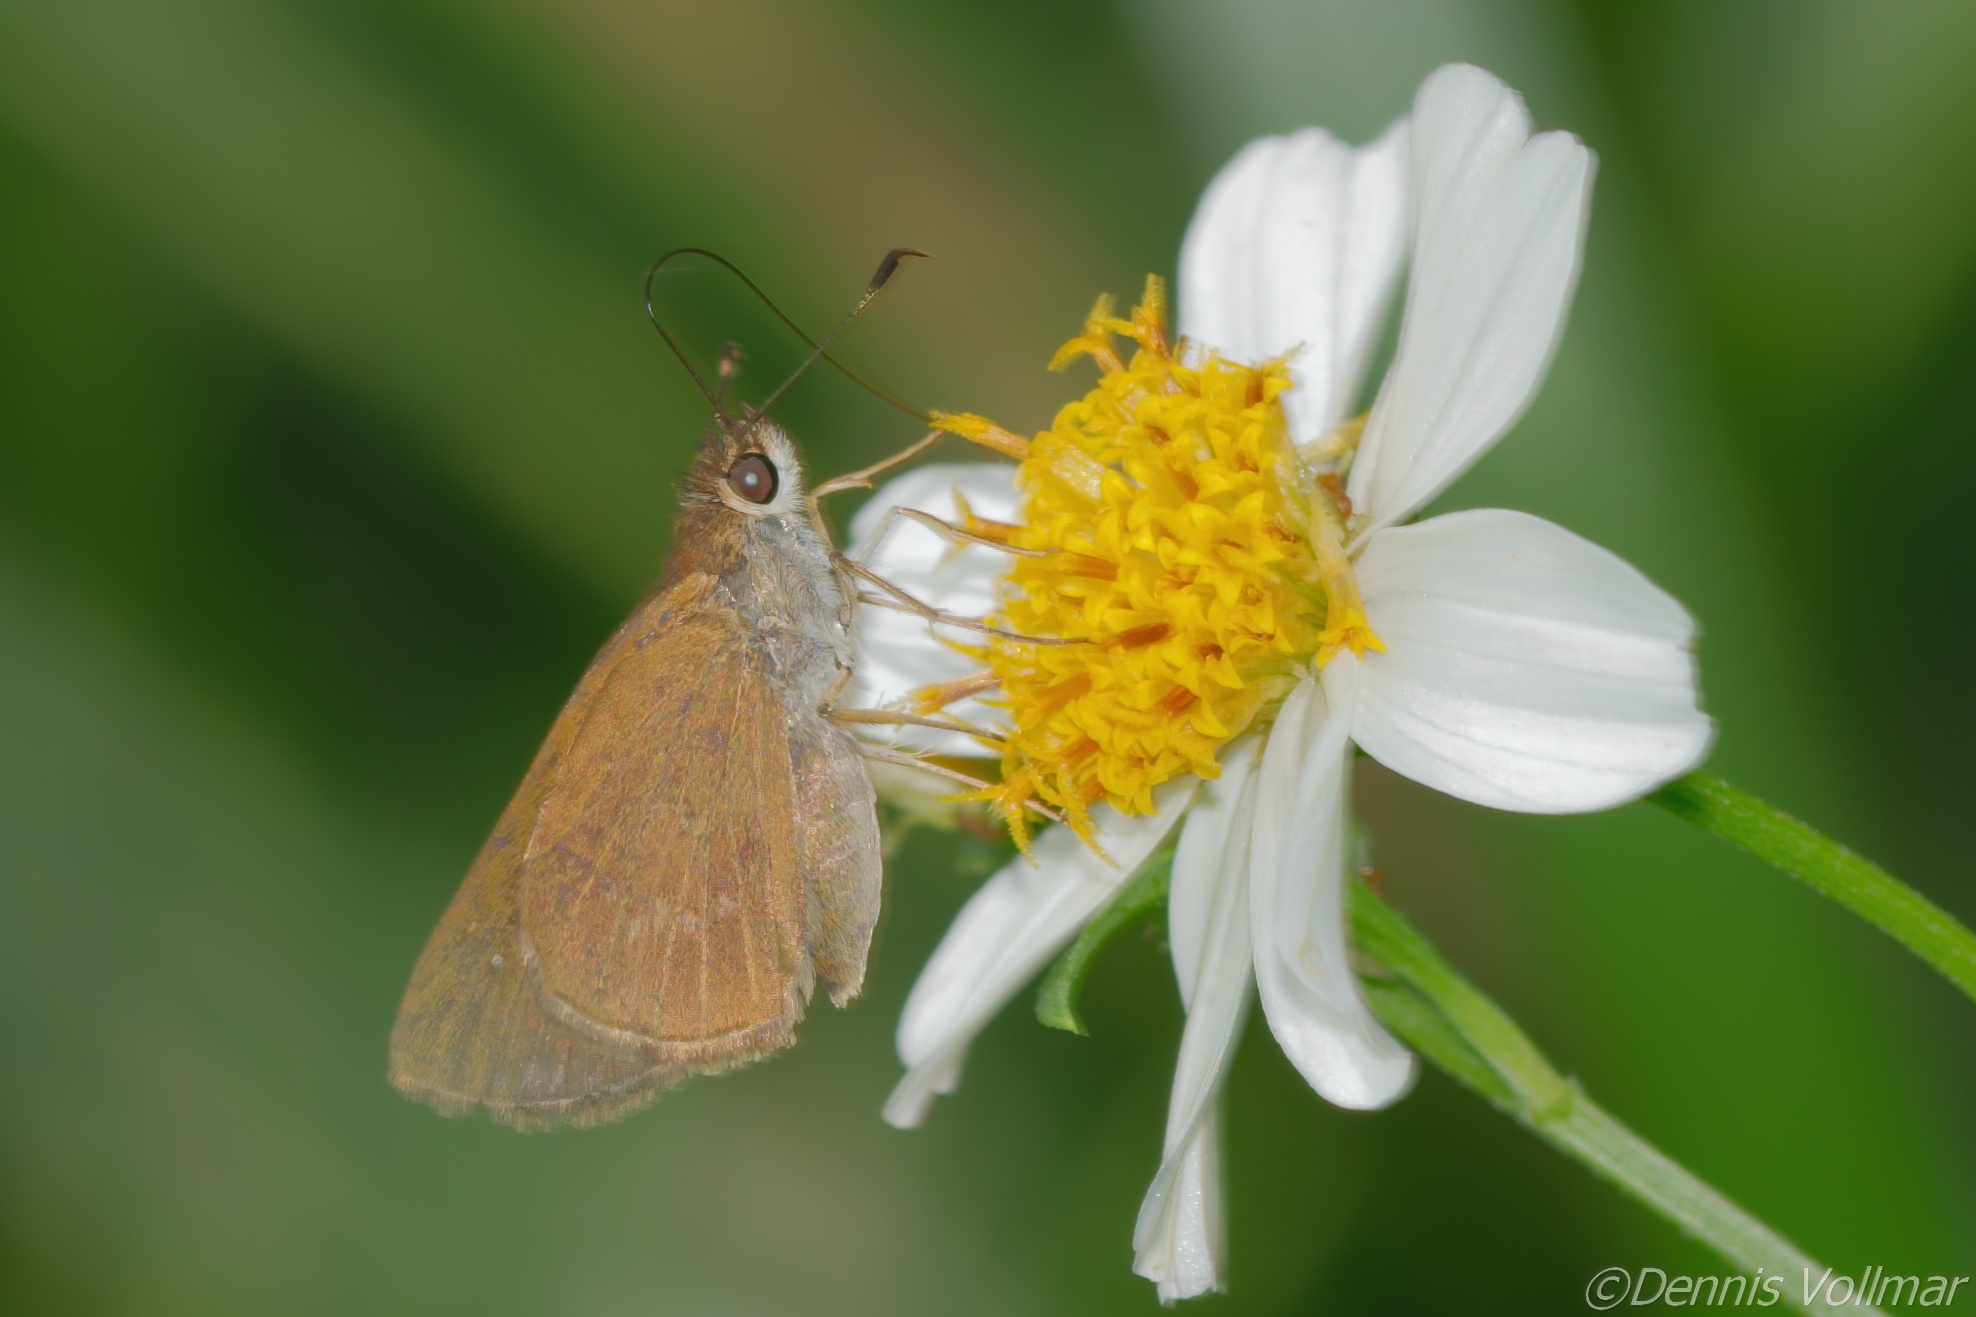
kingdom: Animalia
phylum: Arthropoda
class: Insecta
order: Lepidoptera
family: Hesperiidae
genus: Cymaenes
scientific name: Cymaenes tripunctus
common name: Dingy dotted skipper
